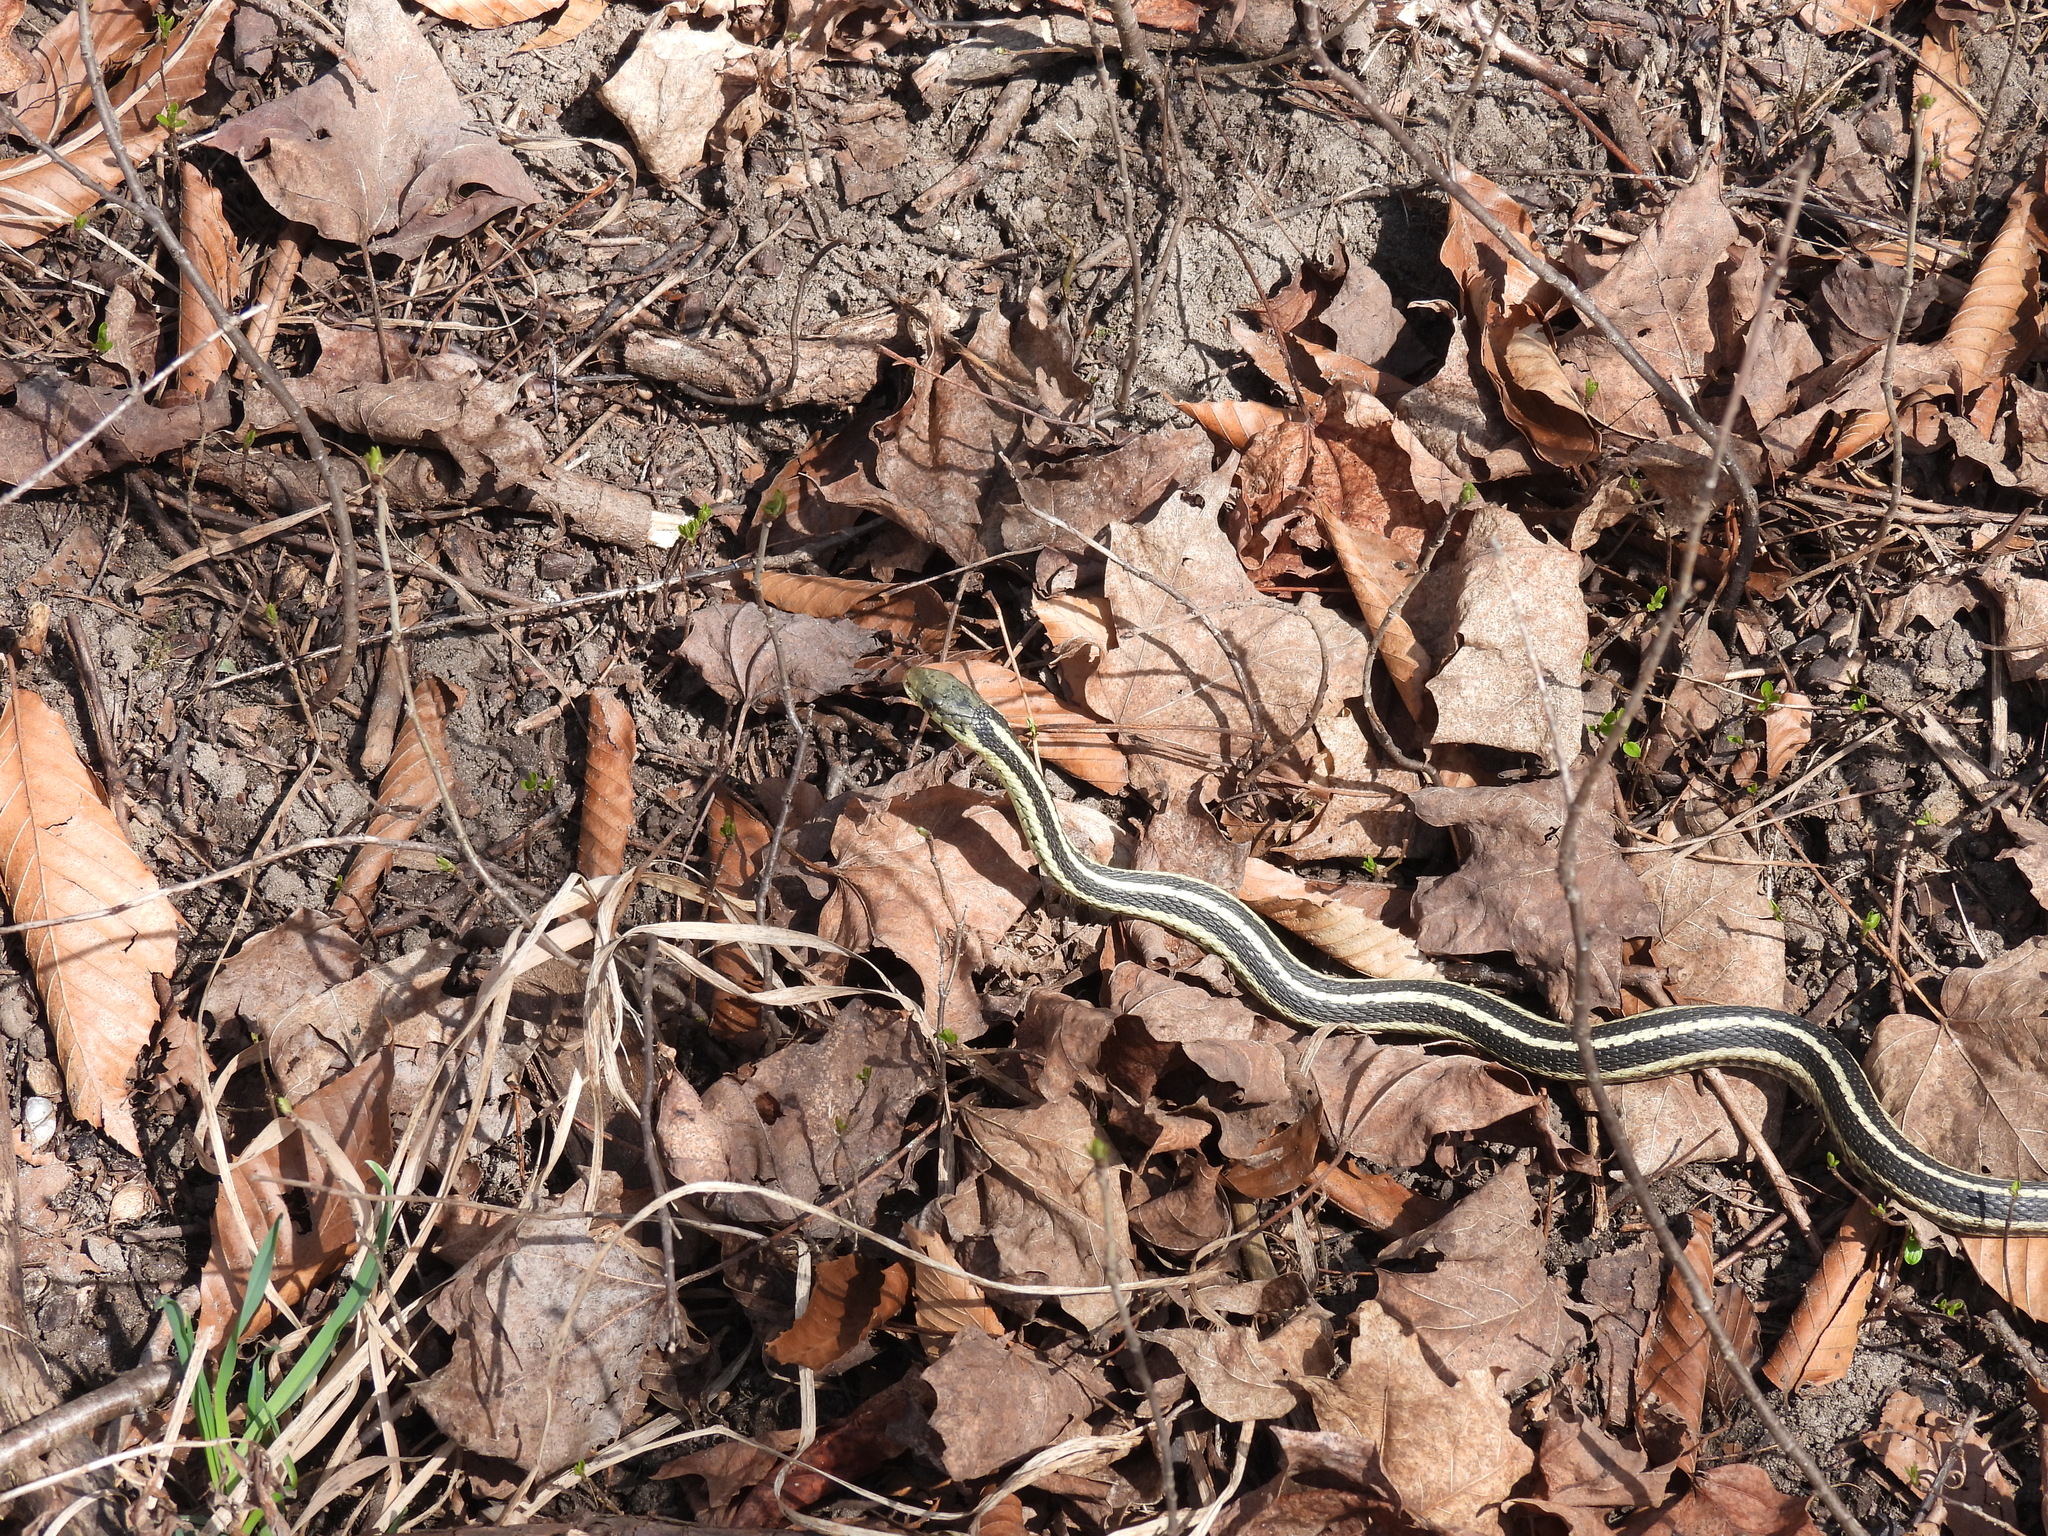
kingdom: Animalia
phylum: Chordata
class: Squamata
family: Colubridae
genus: Thamnophis
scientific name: Thamnophis sirtalis
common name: Common garter snake
